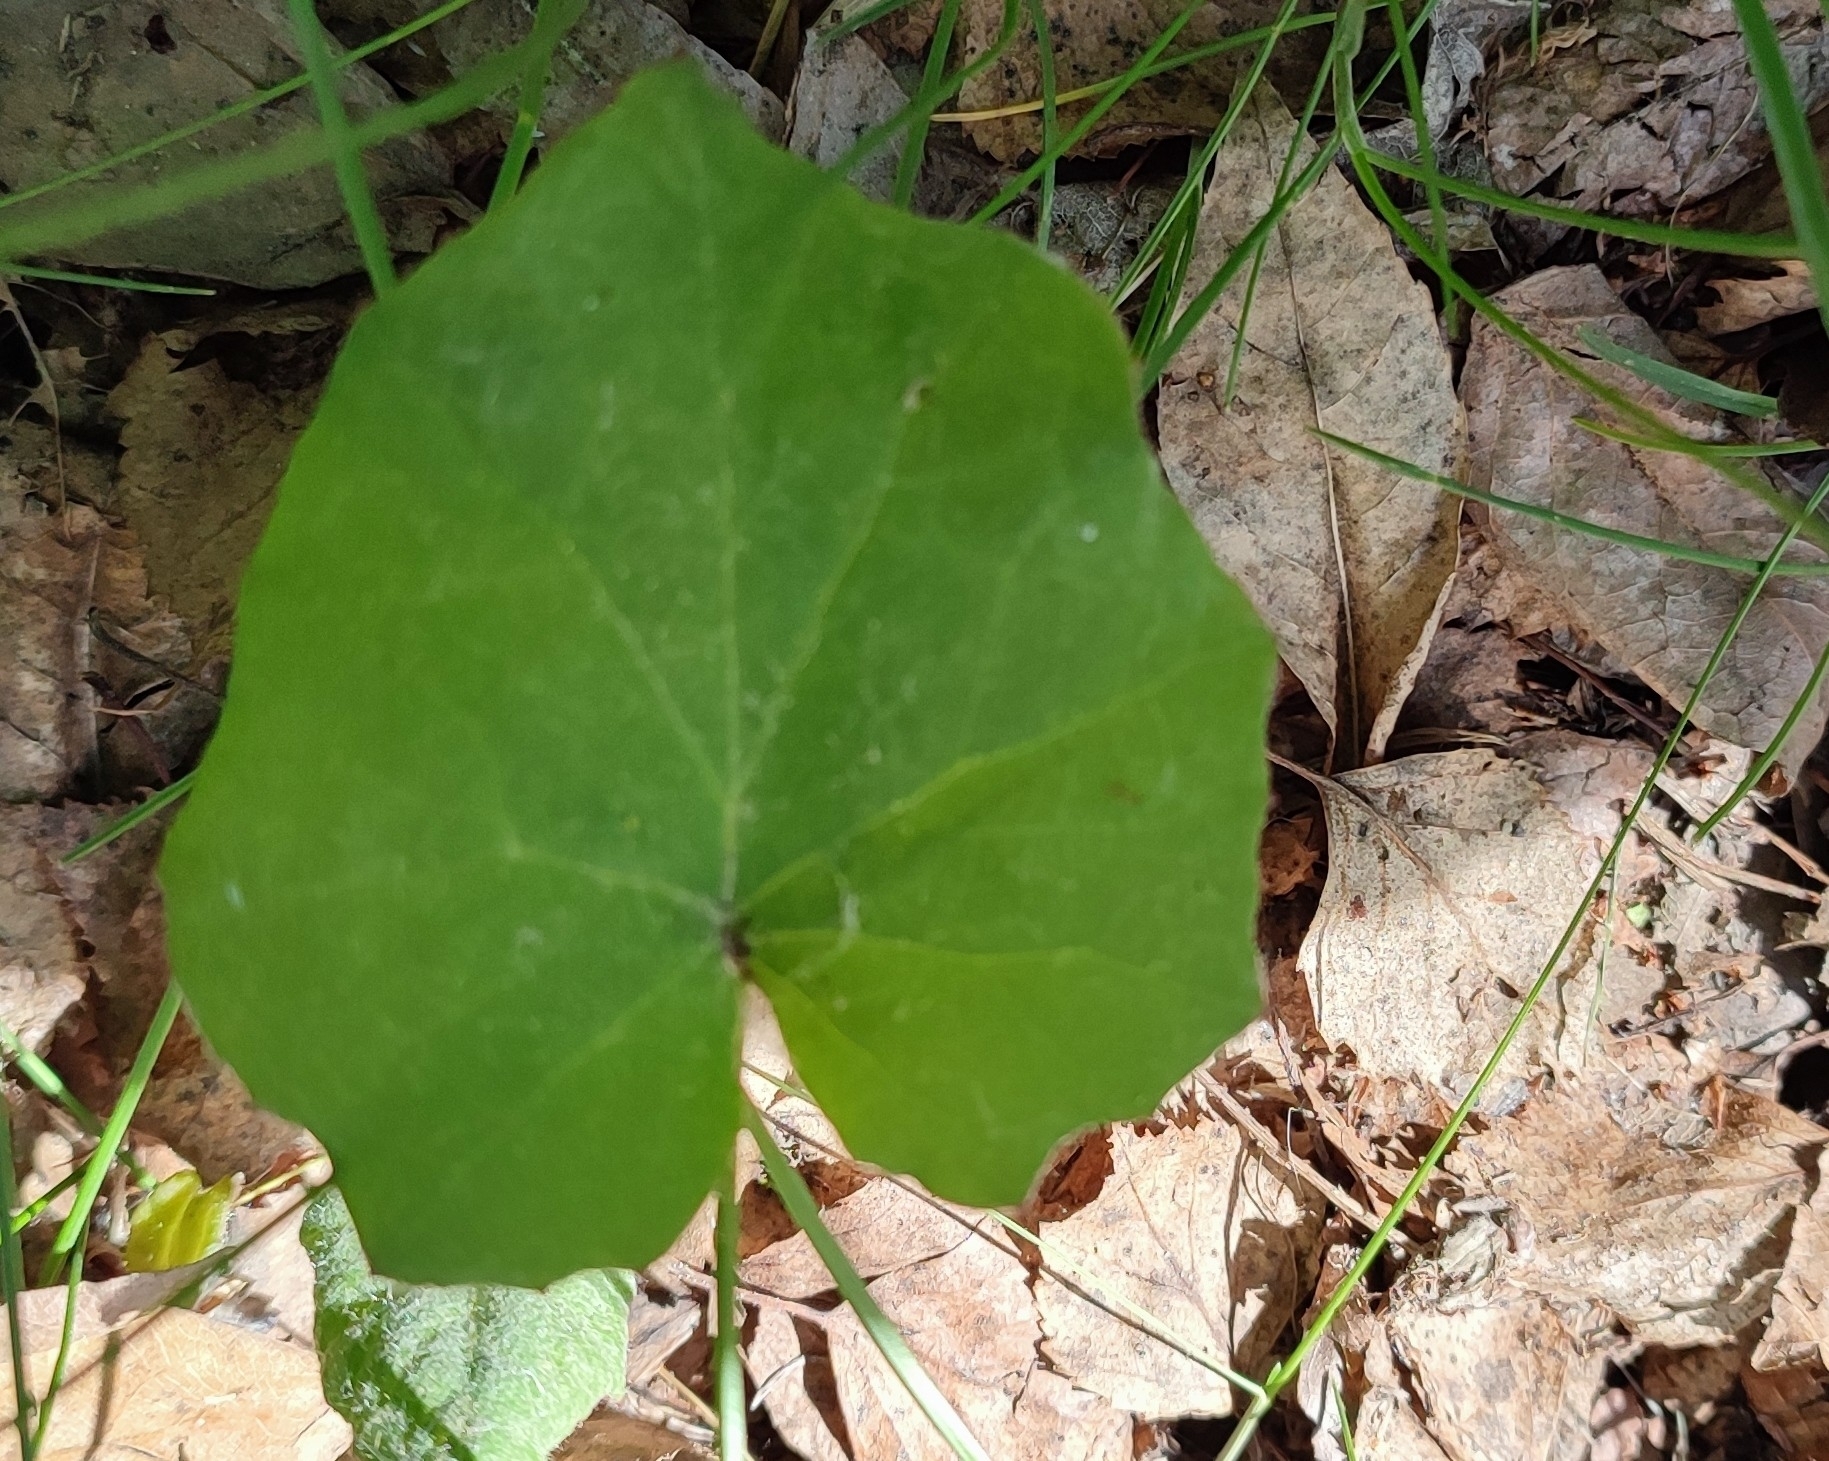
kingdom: Plantae
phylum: Tracheophyta
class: Magnoliopsida
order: Asterales
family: Asteraceae
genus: Tussilago
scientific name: Tussilago farfara
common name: Coltsfoot
